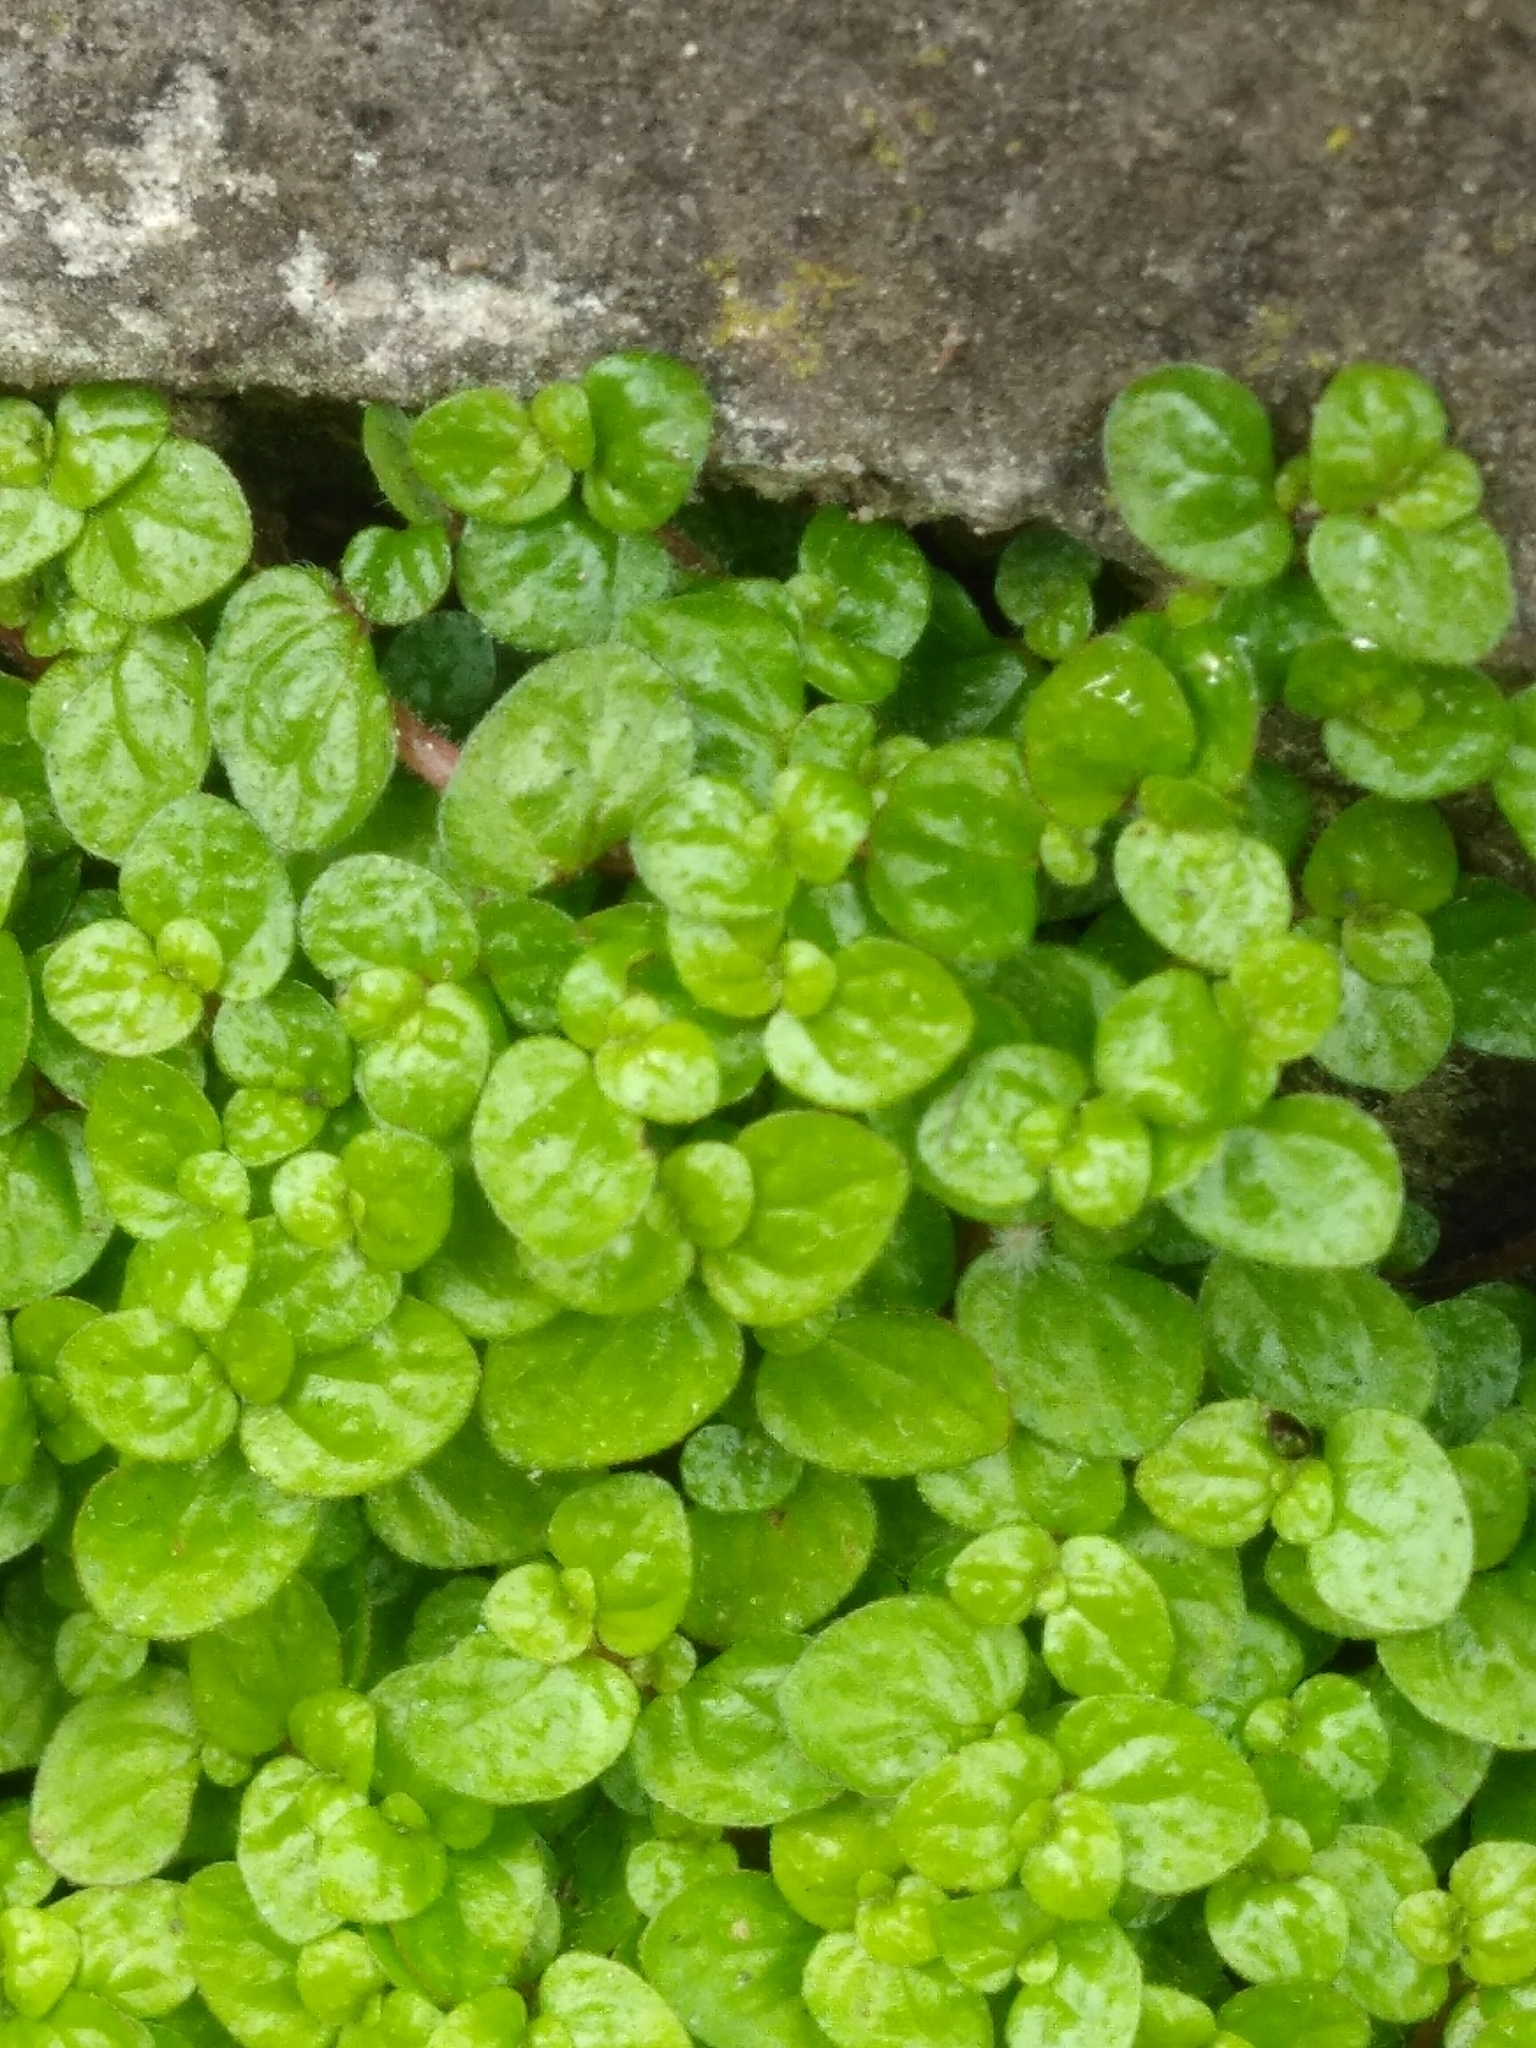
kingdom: Plantae
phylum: Tracheophyta
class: Magnoliopsida
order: Rosales
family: Urticaceae
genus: Soleirolia
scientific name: Soleirolia soleirolii
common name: Mind-your-own-business
